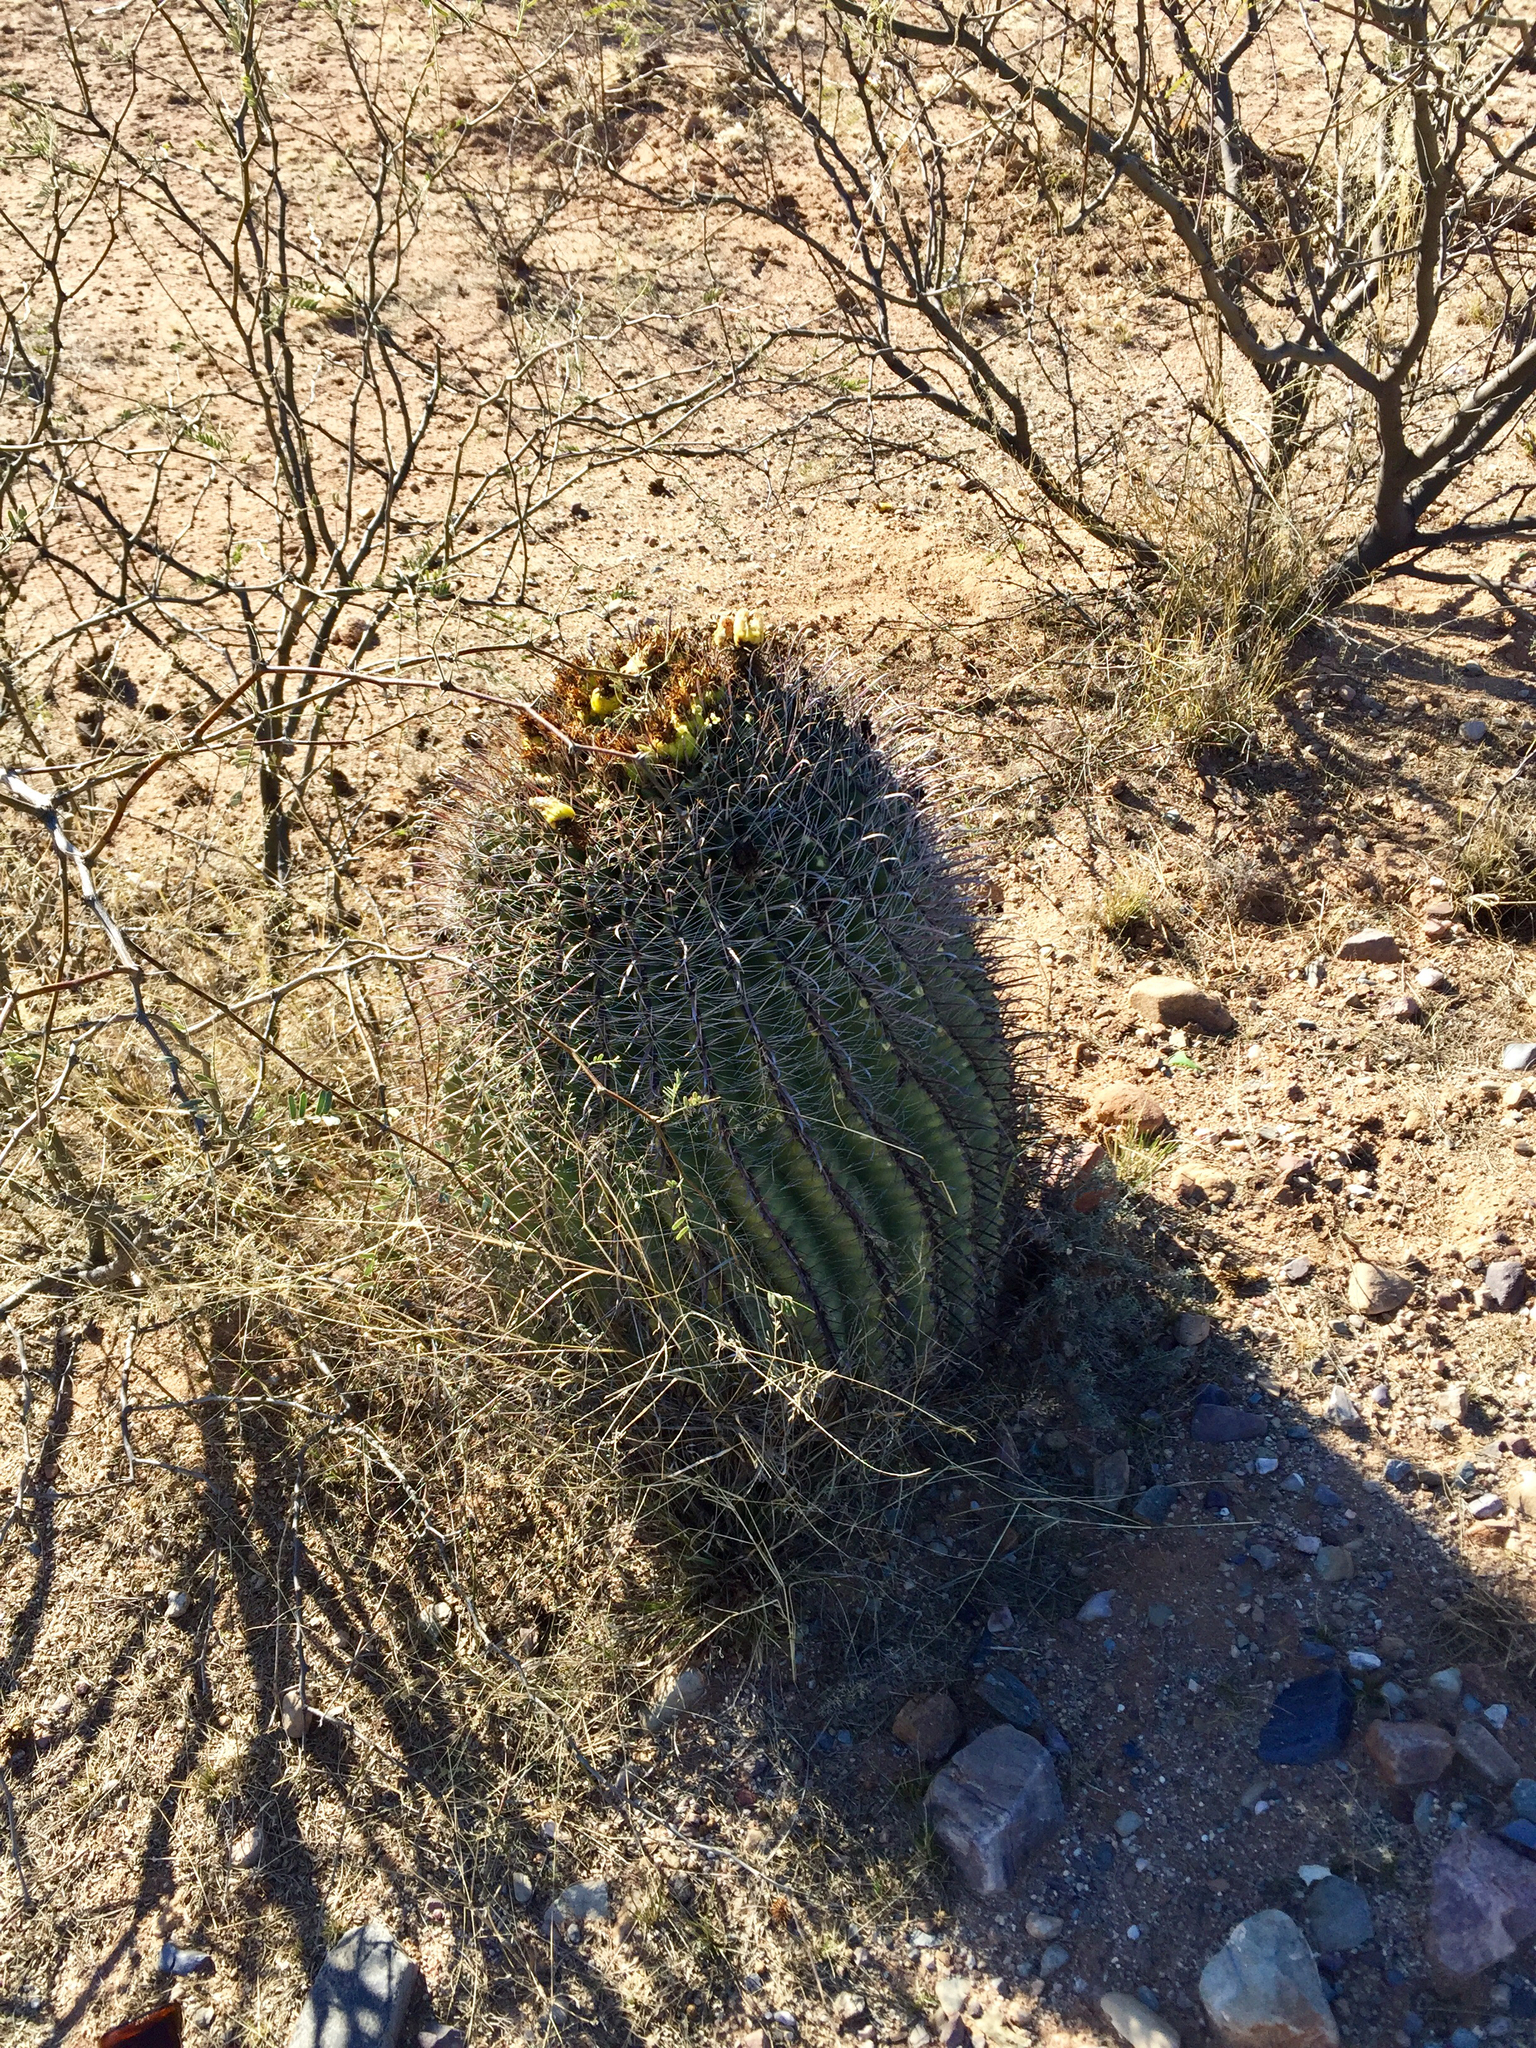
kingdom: Plantae
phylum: Tracheophyta
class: Magnoliopsida
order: Caryophyllales
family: Cactaceae
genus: Ferocactus
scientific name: Ferocactus wislizeni
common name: Candy barrel cactus
